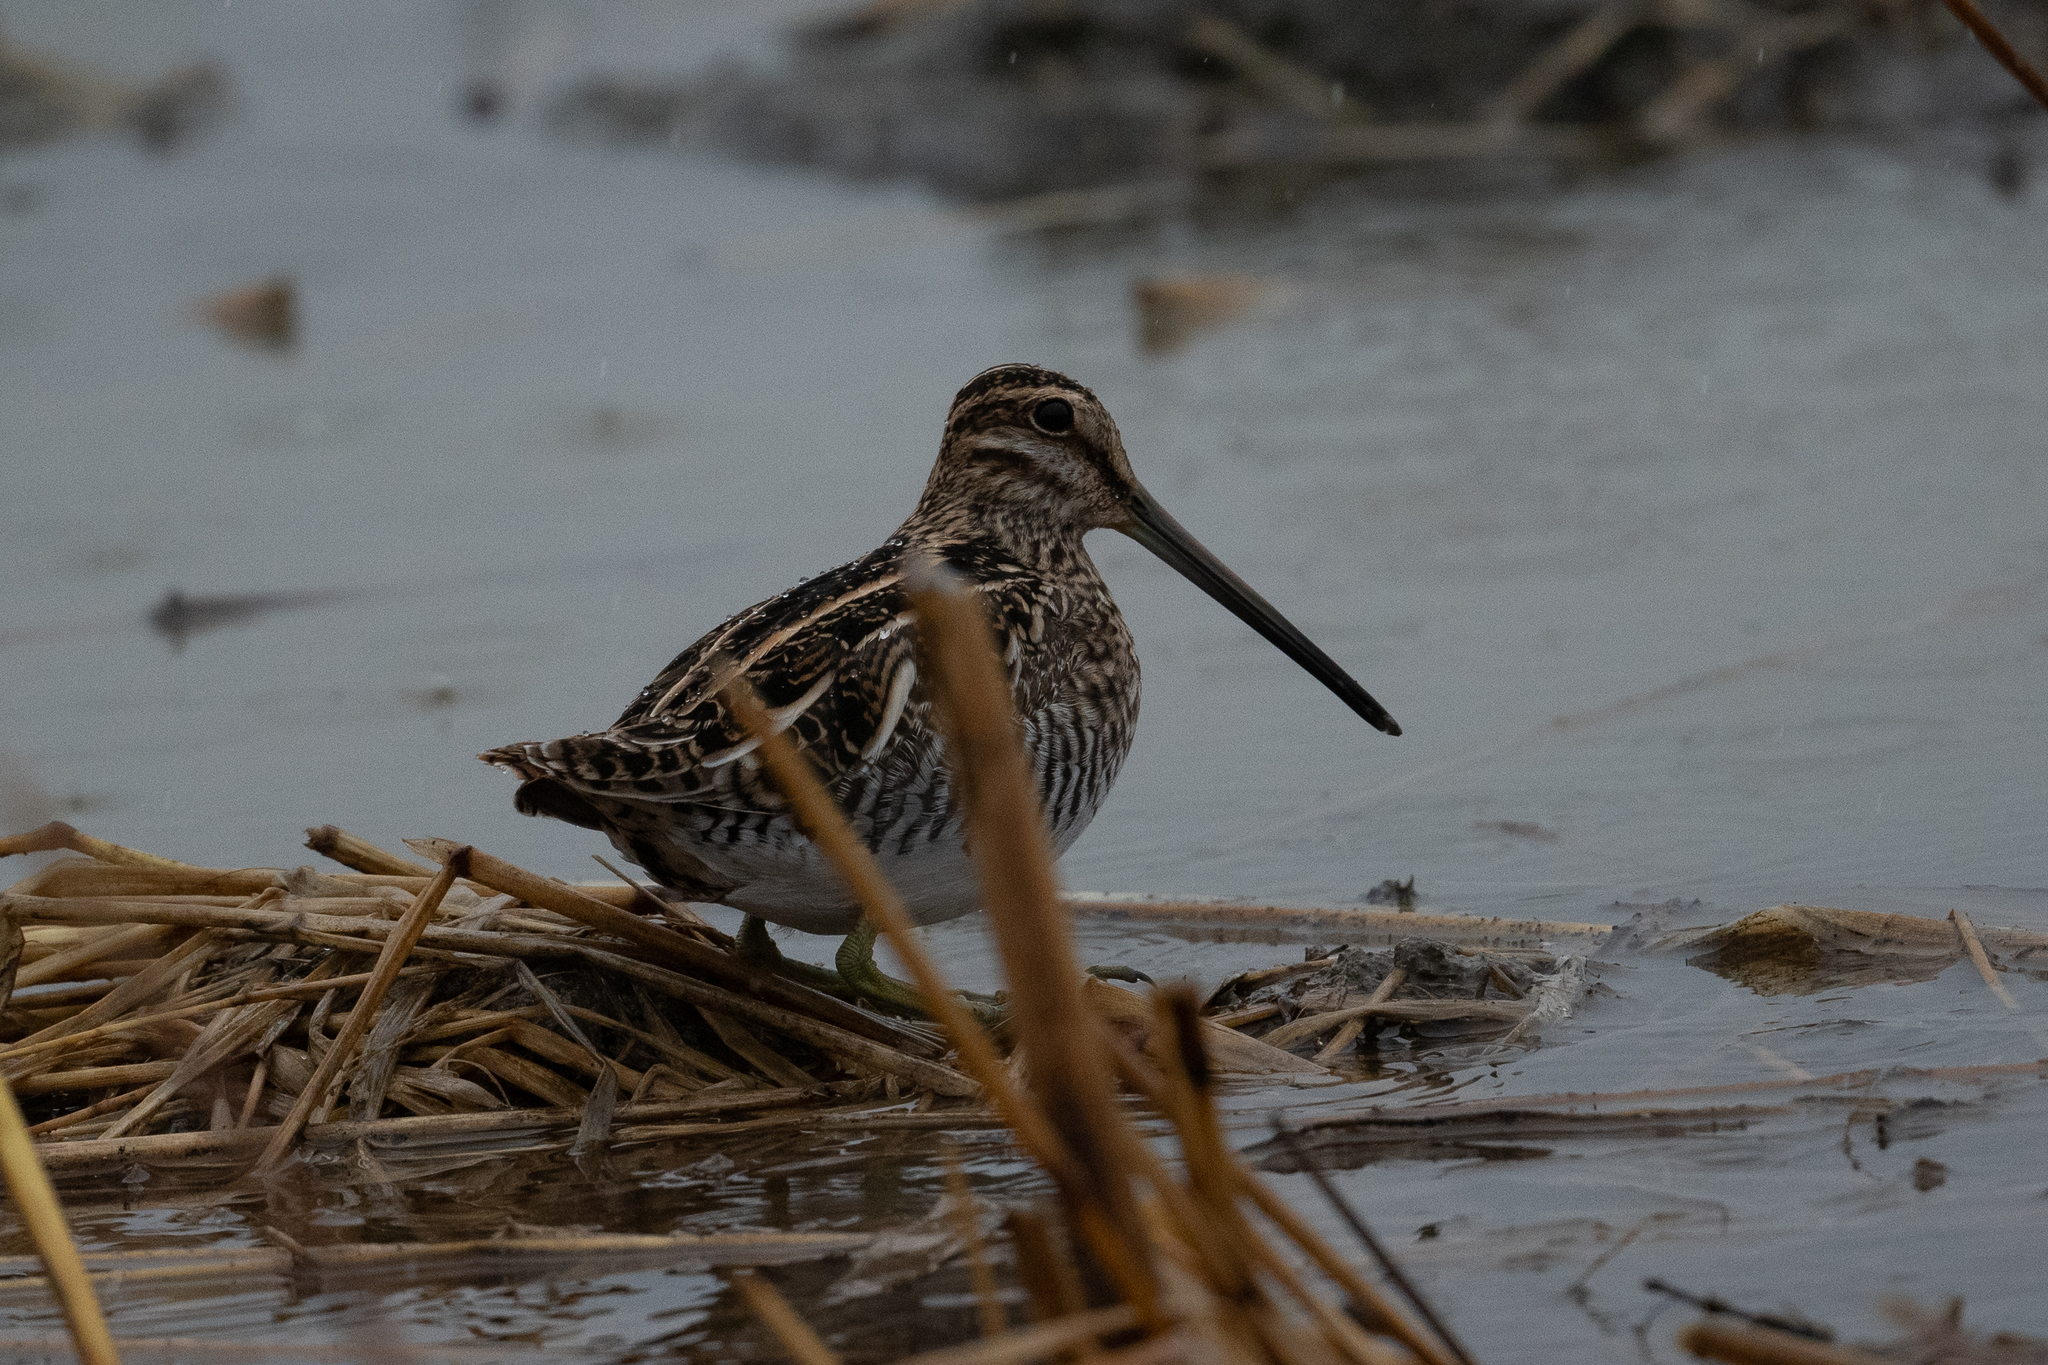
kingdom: Animalia
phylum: Chordata
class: Aves
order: Charadriiformes
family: Scolopacidae
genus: Gallinago
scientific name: Gallinago delicata
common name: Wilson's snipe
